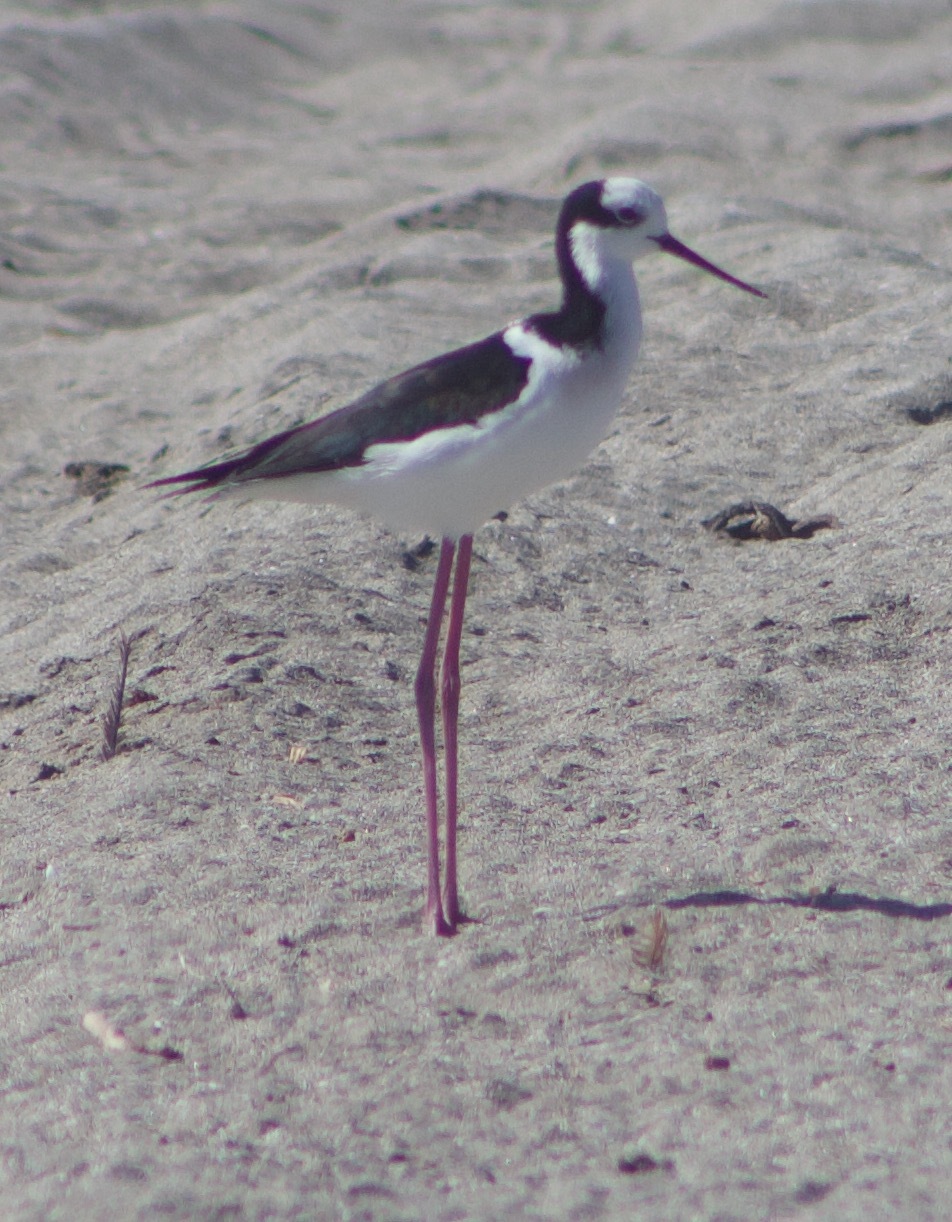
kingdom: Animalia
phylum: Chordata
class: Aves
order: Charadriiformes
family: Recurvirostridae
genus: Himantopus
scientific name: Himantopus mexicanus
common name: Black-necked stilt
